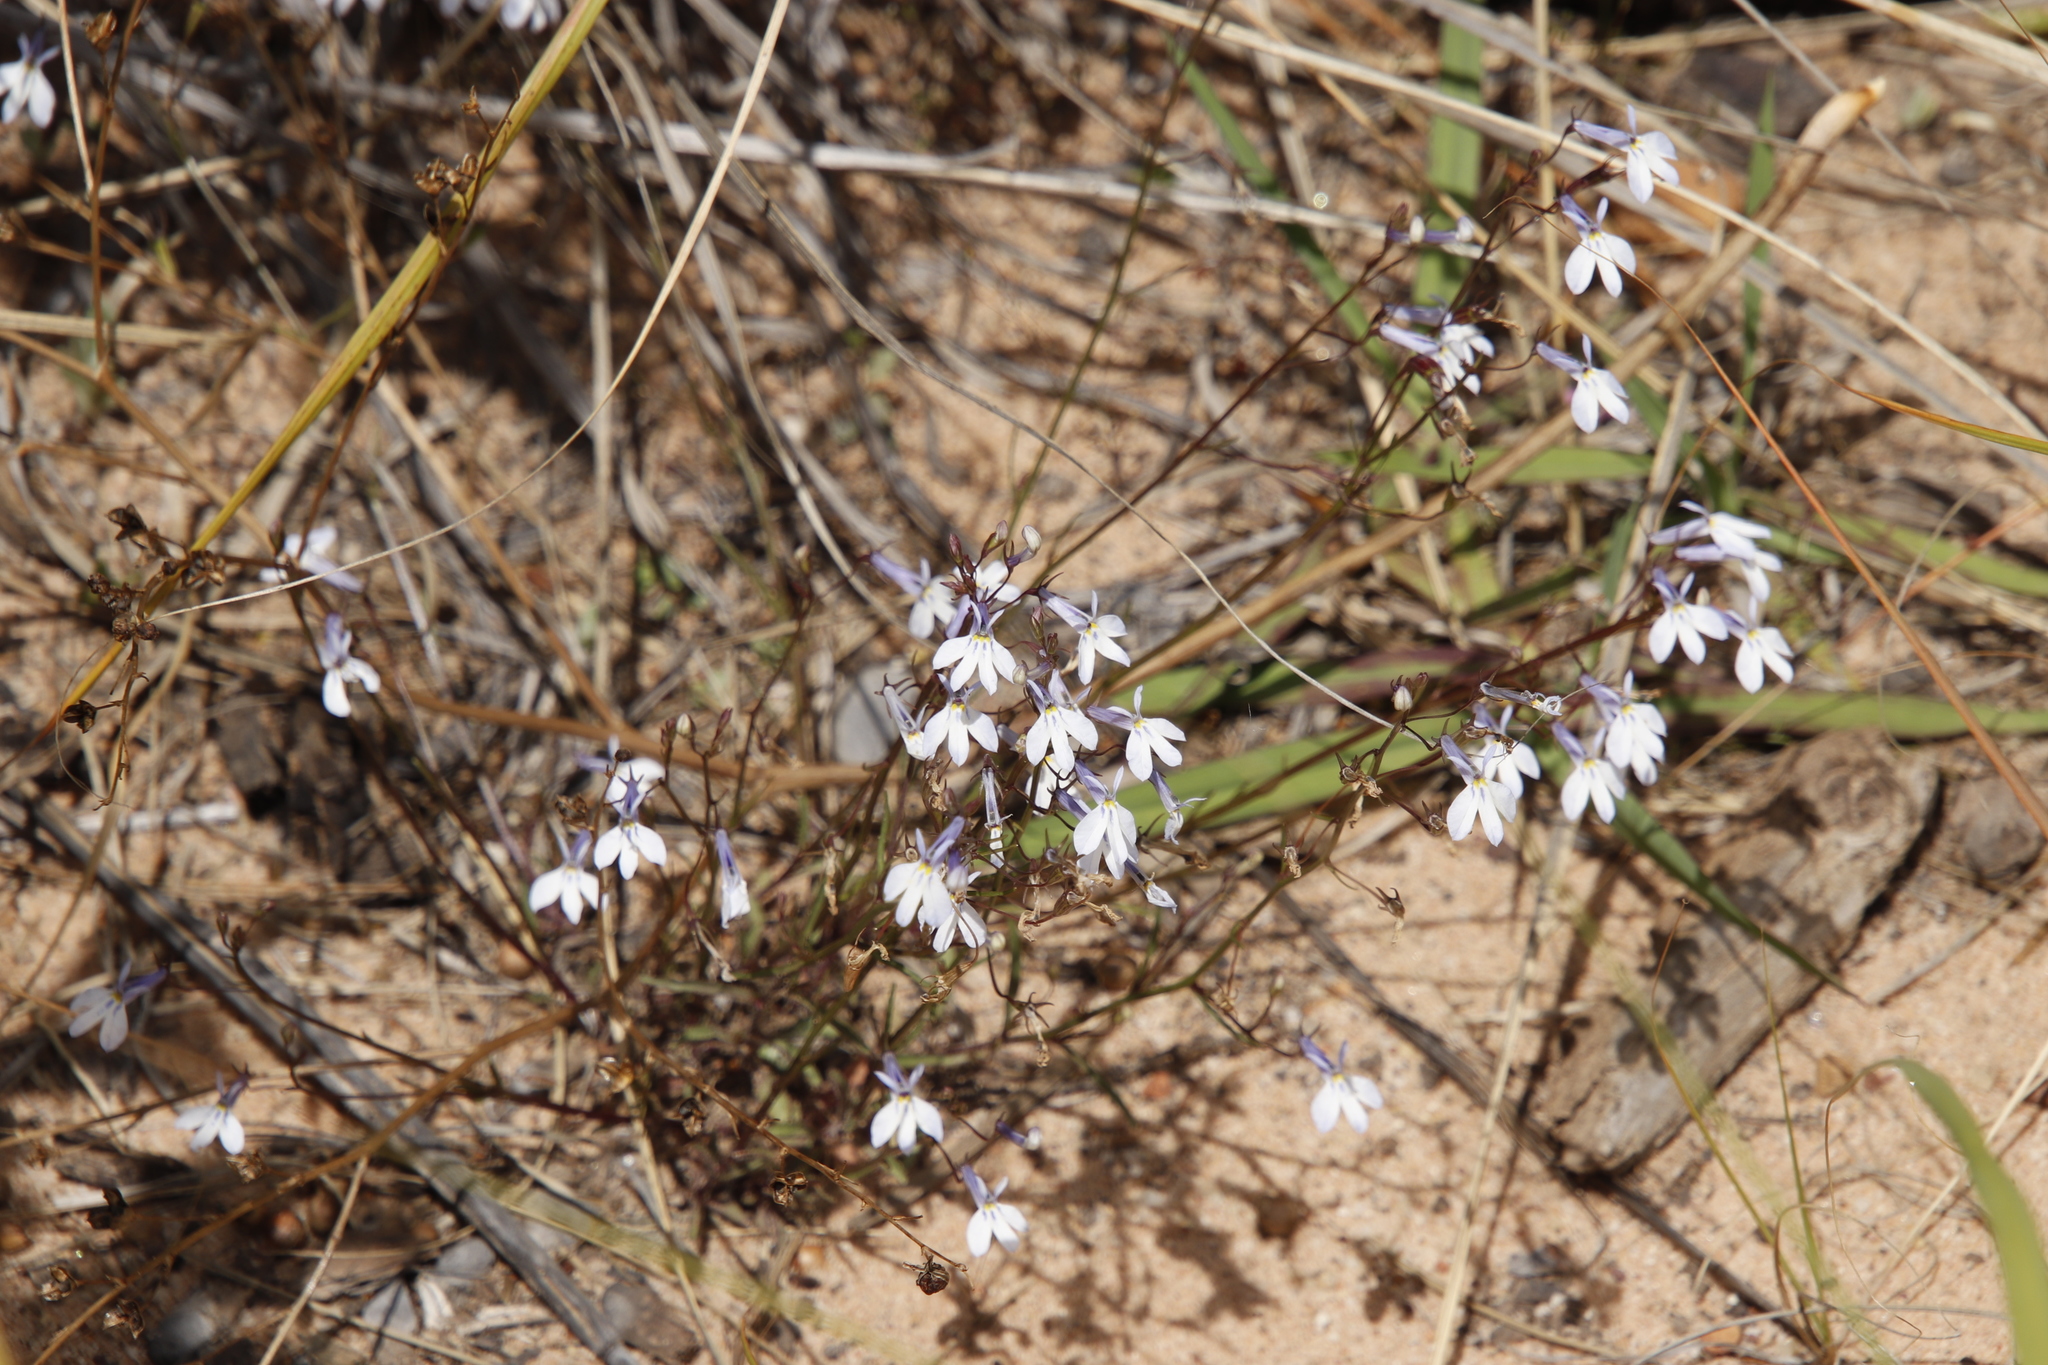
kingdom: Plantae
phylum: Tracheophyta
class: Magnoliopsida
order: Asterales
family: Campanulaceae
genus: Lobelia
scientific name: Lobelia erinus
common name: Edging lobelia
